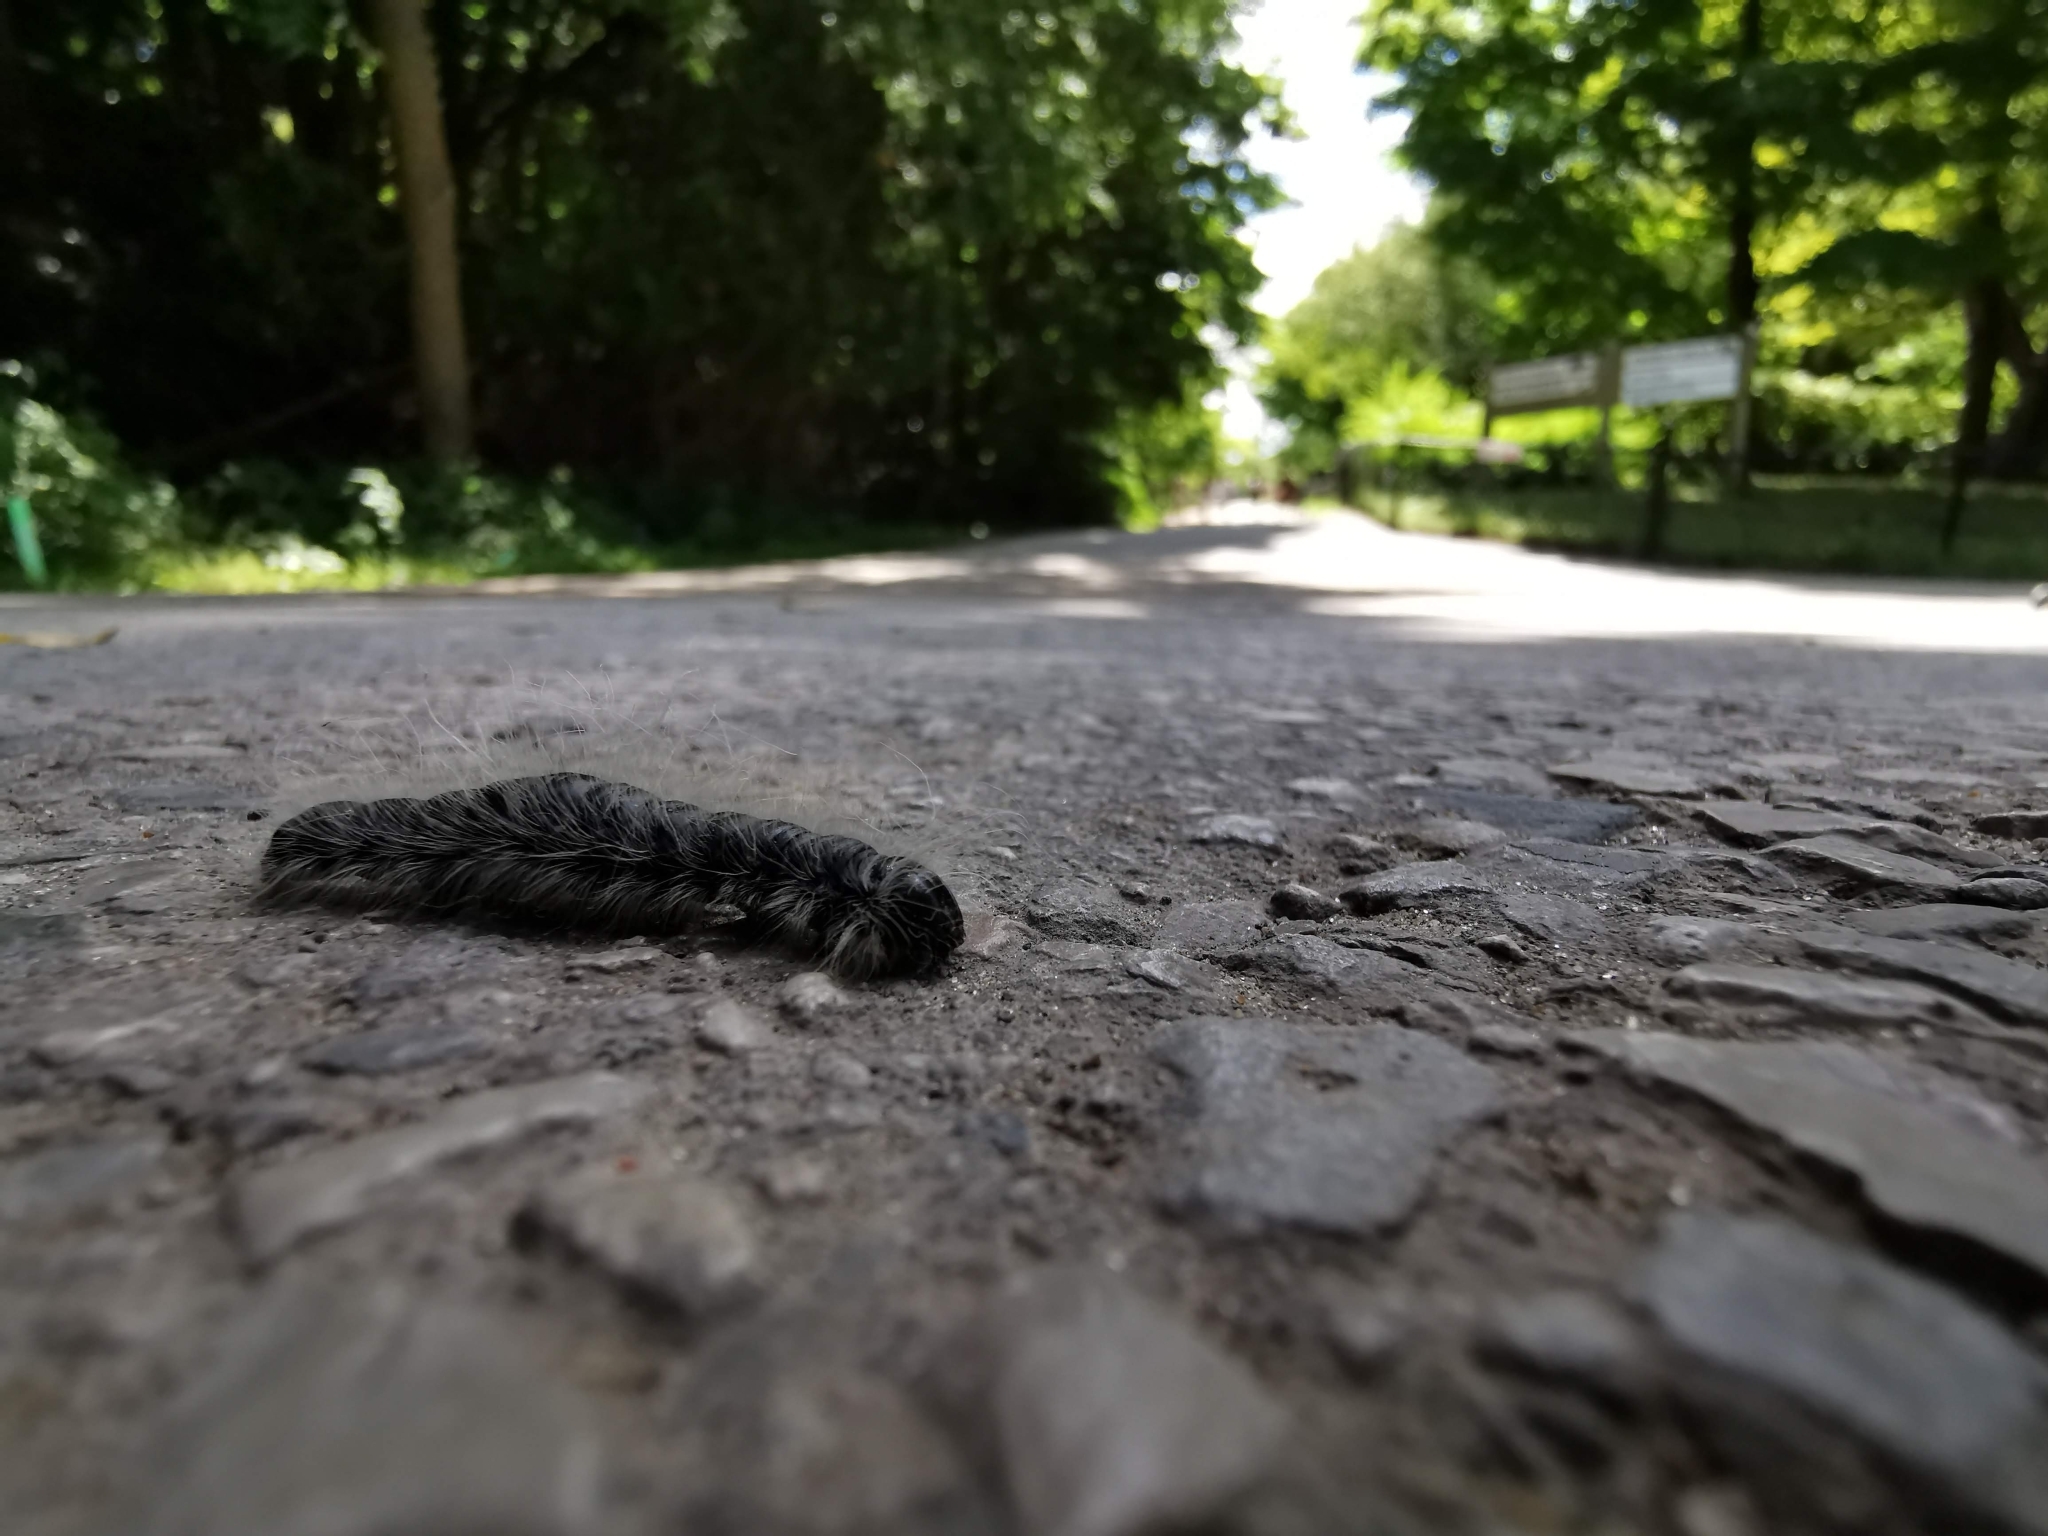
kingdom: Animalia
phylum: Arthropoda
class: Insecta
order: Lepidoptera
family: Notodontidae
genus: Datana
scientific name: Datana integerrima
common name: Walnut caterpillar
